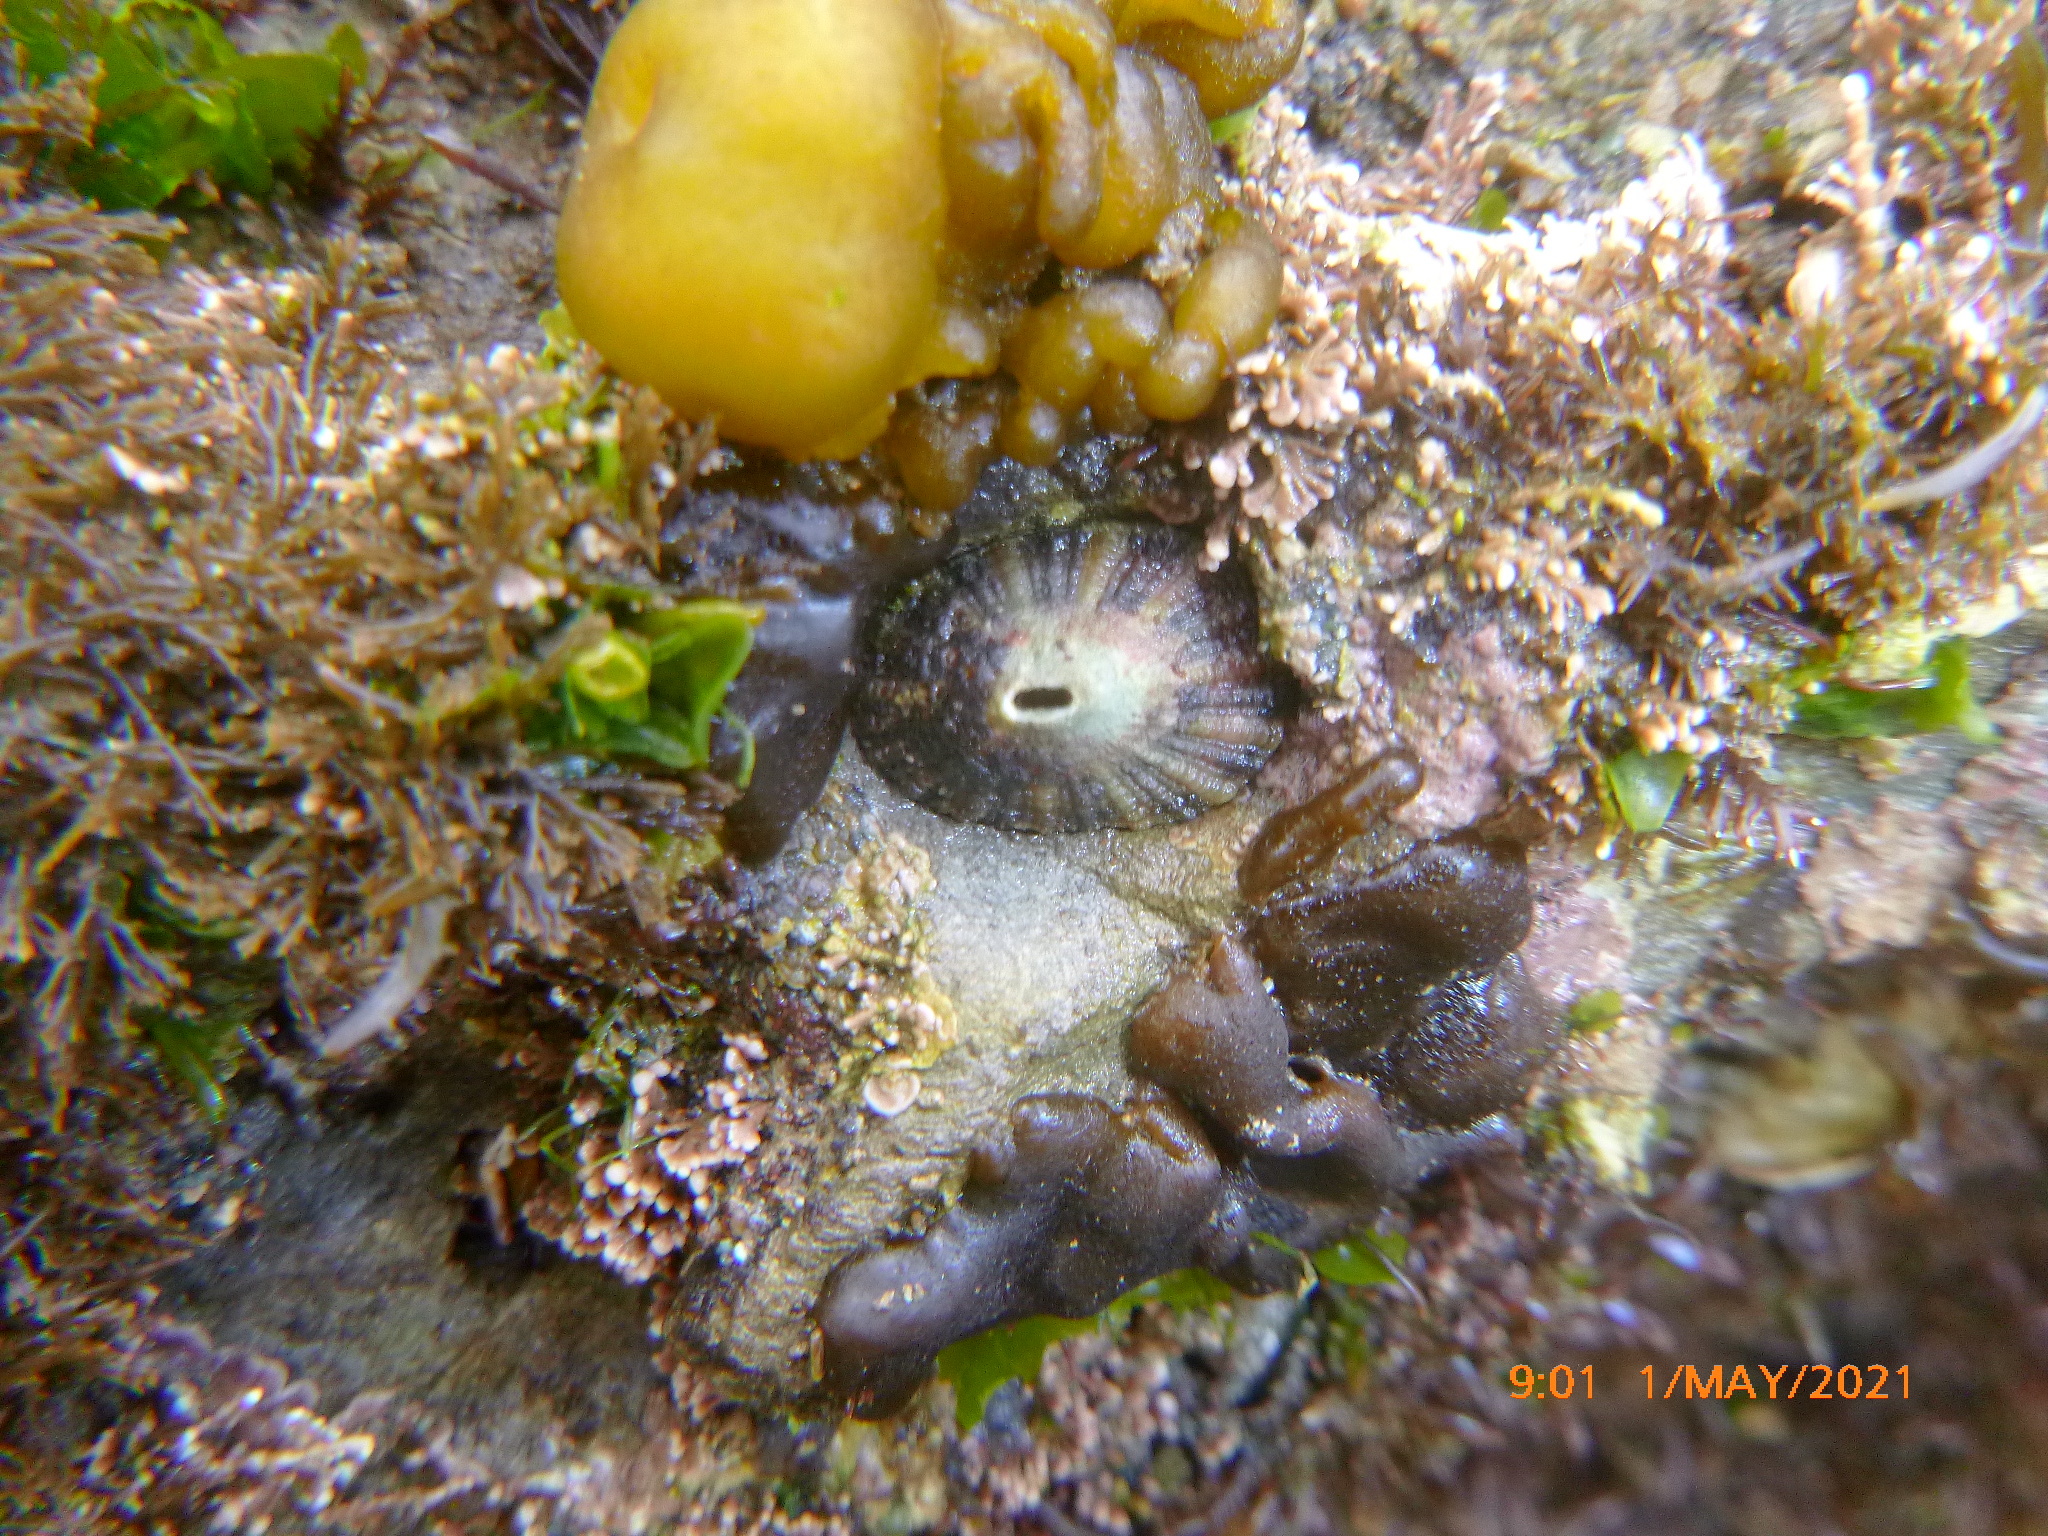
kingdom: Animalia
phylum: Mollusca
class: Gastropoda
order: Lepetellida
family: Fissurellidae
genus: Diodora
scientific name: Diodora aspera
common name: Rough keyhole limpet
